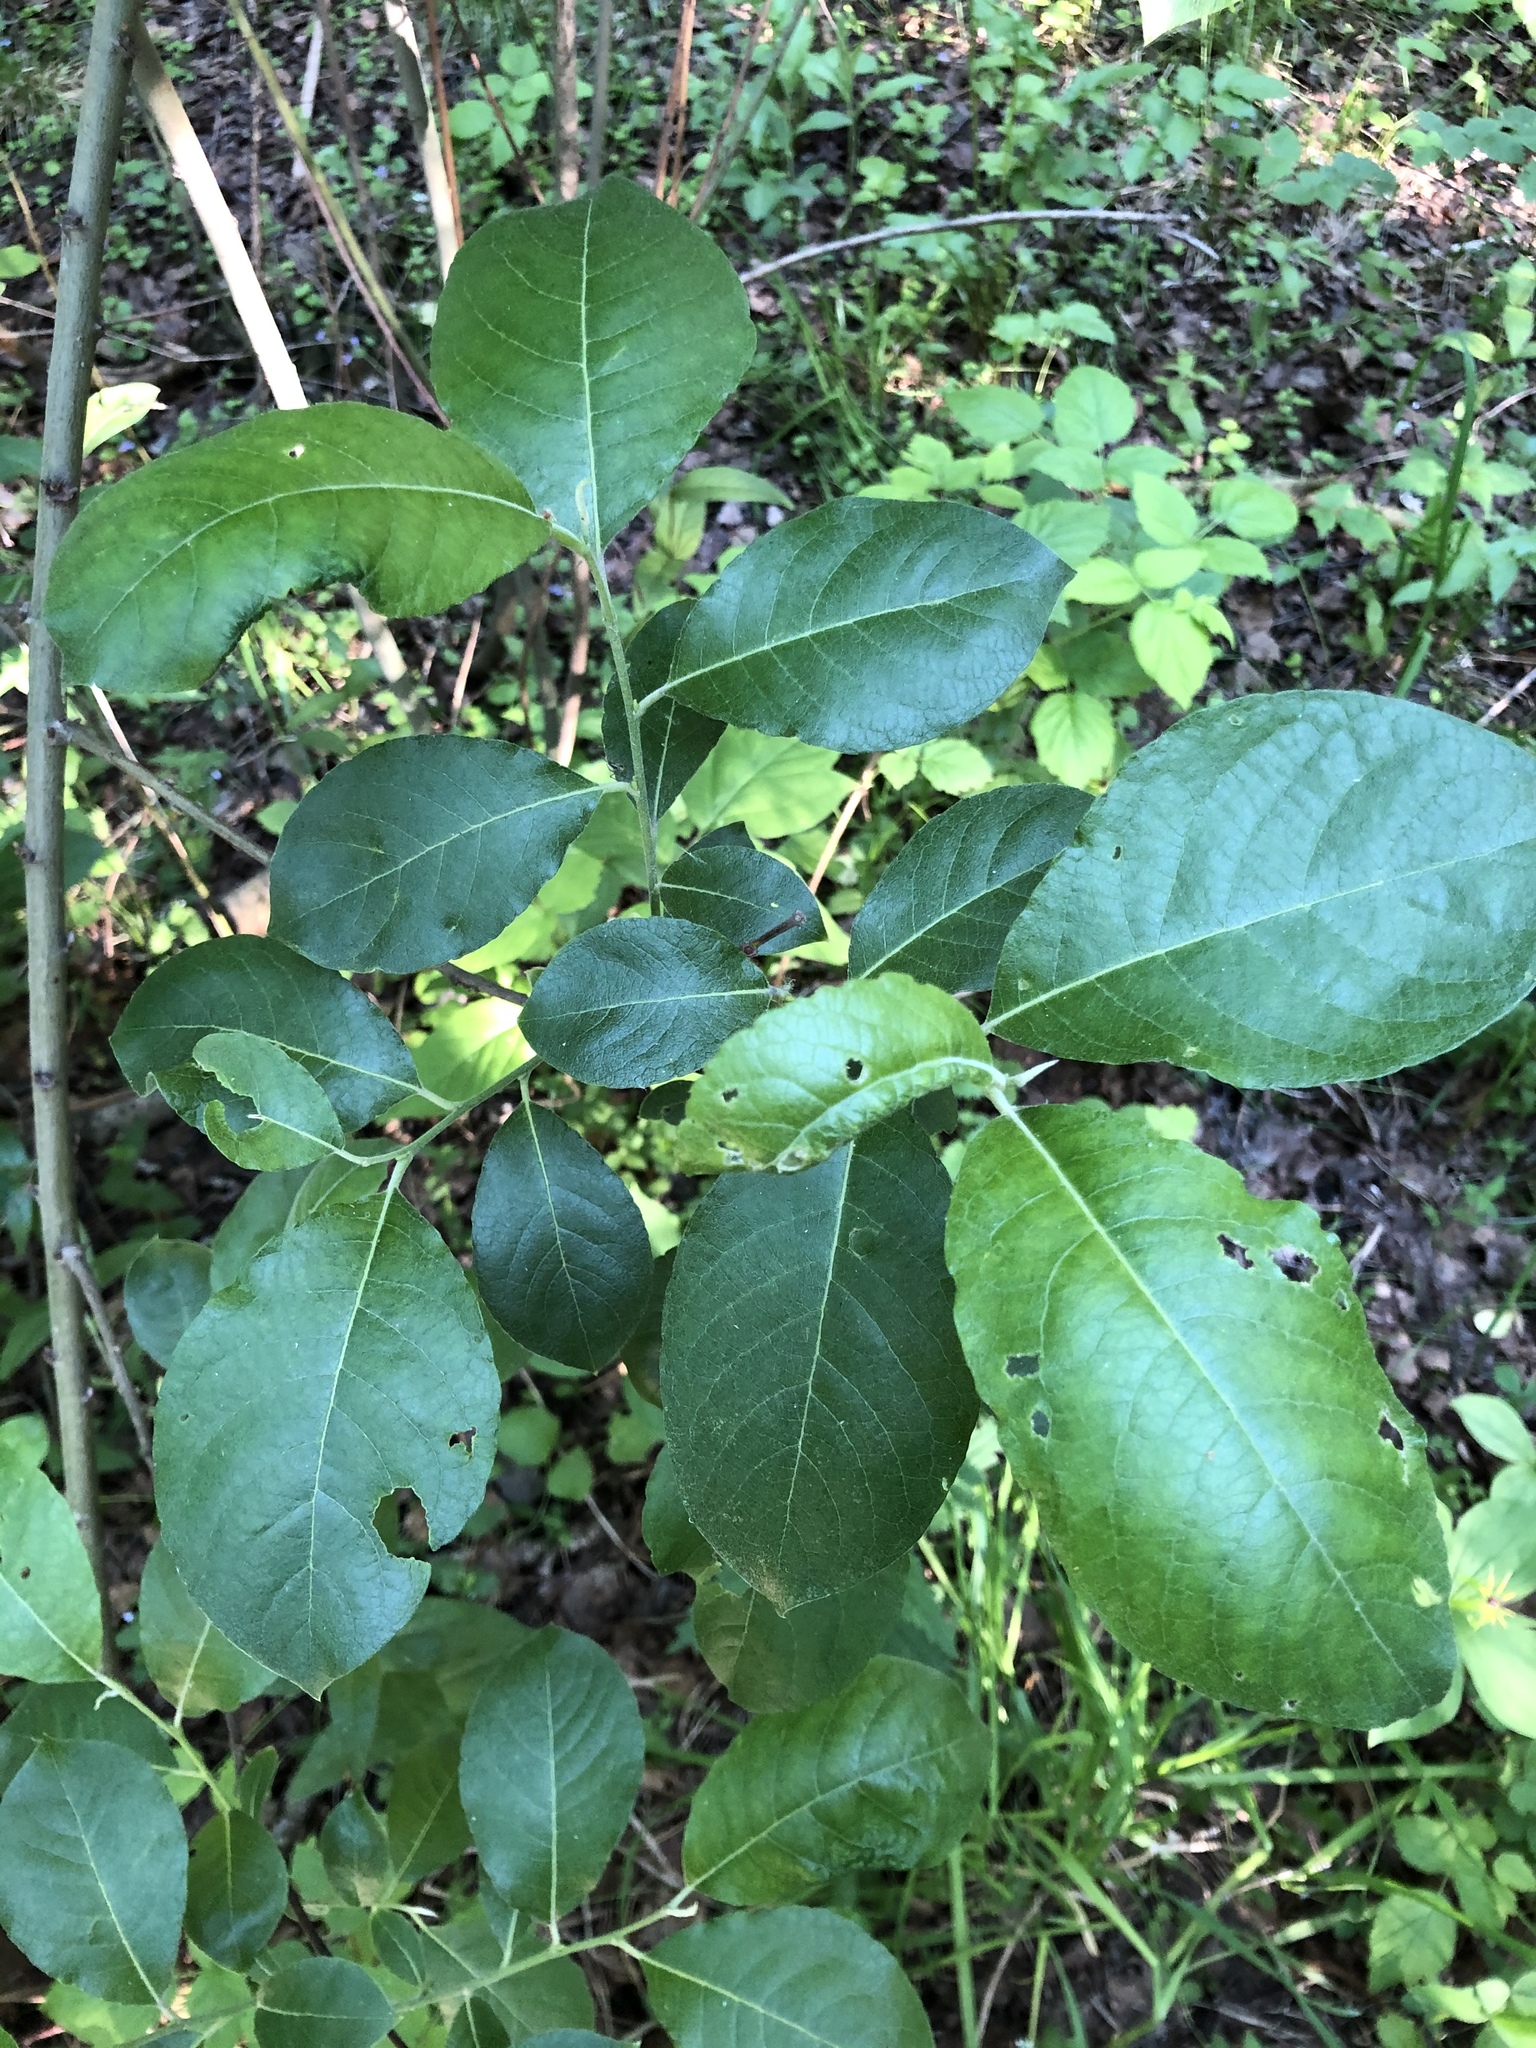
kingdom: Plantae
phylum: Tracheophyta
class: Magnoliopsida
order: Malpighiales
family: Salicaceae
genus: Salix
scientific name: Salix caprea
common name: Goat willow
